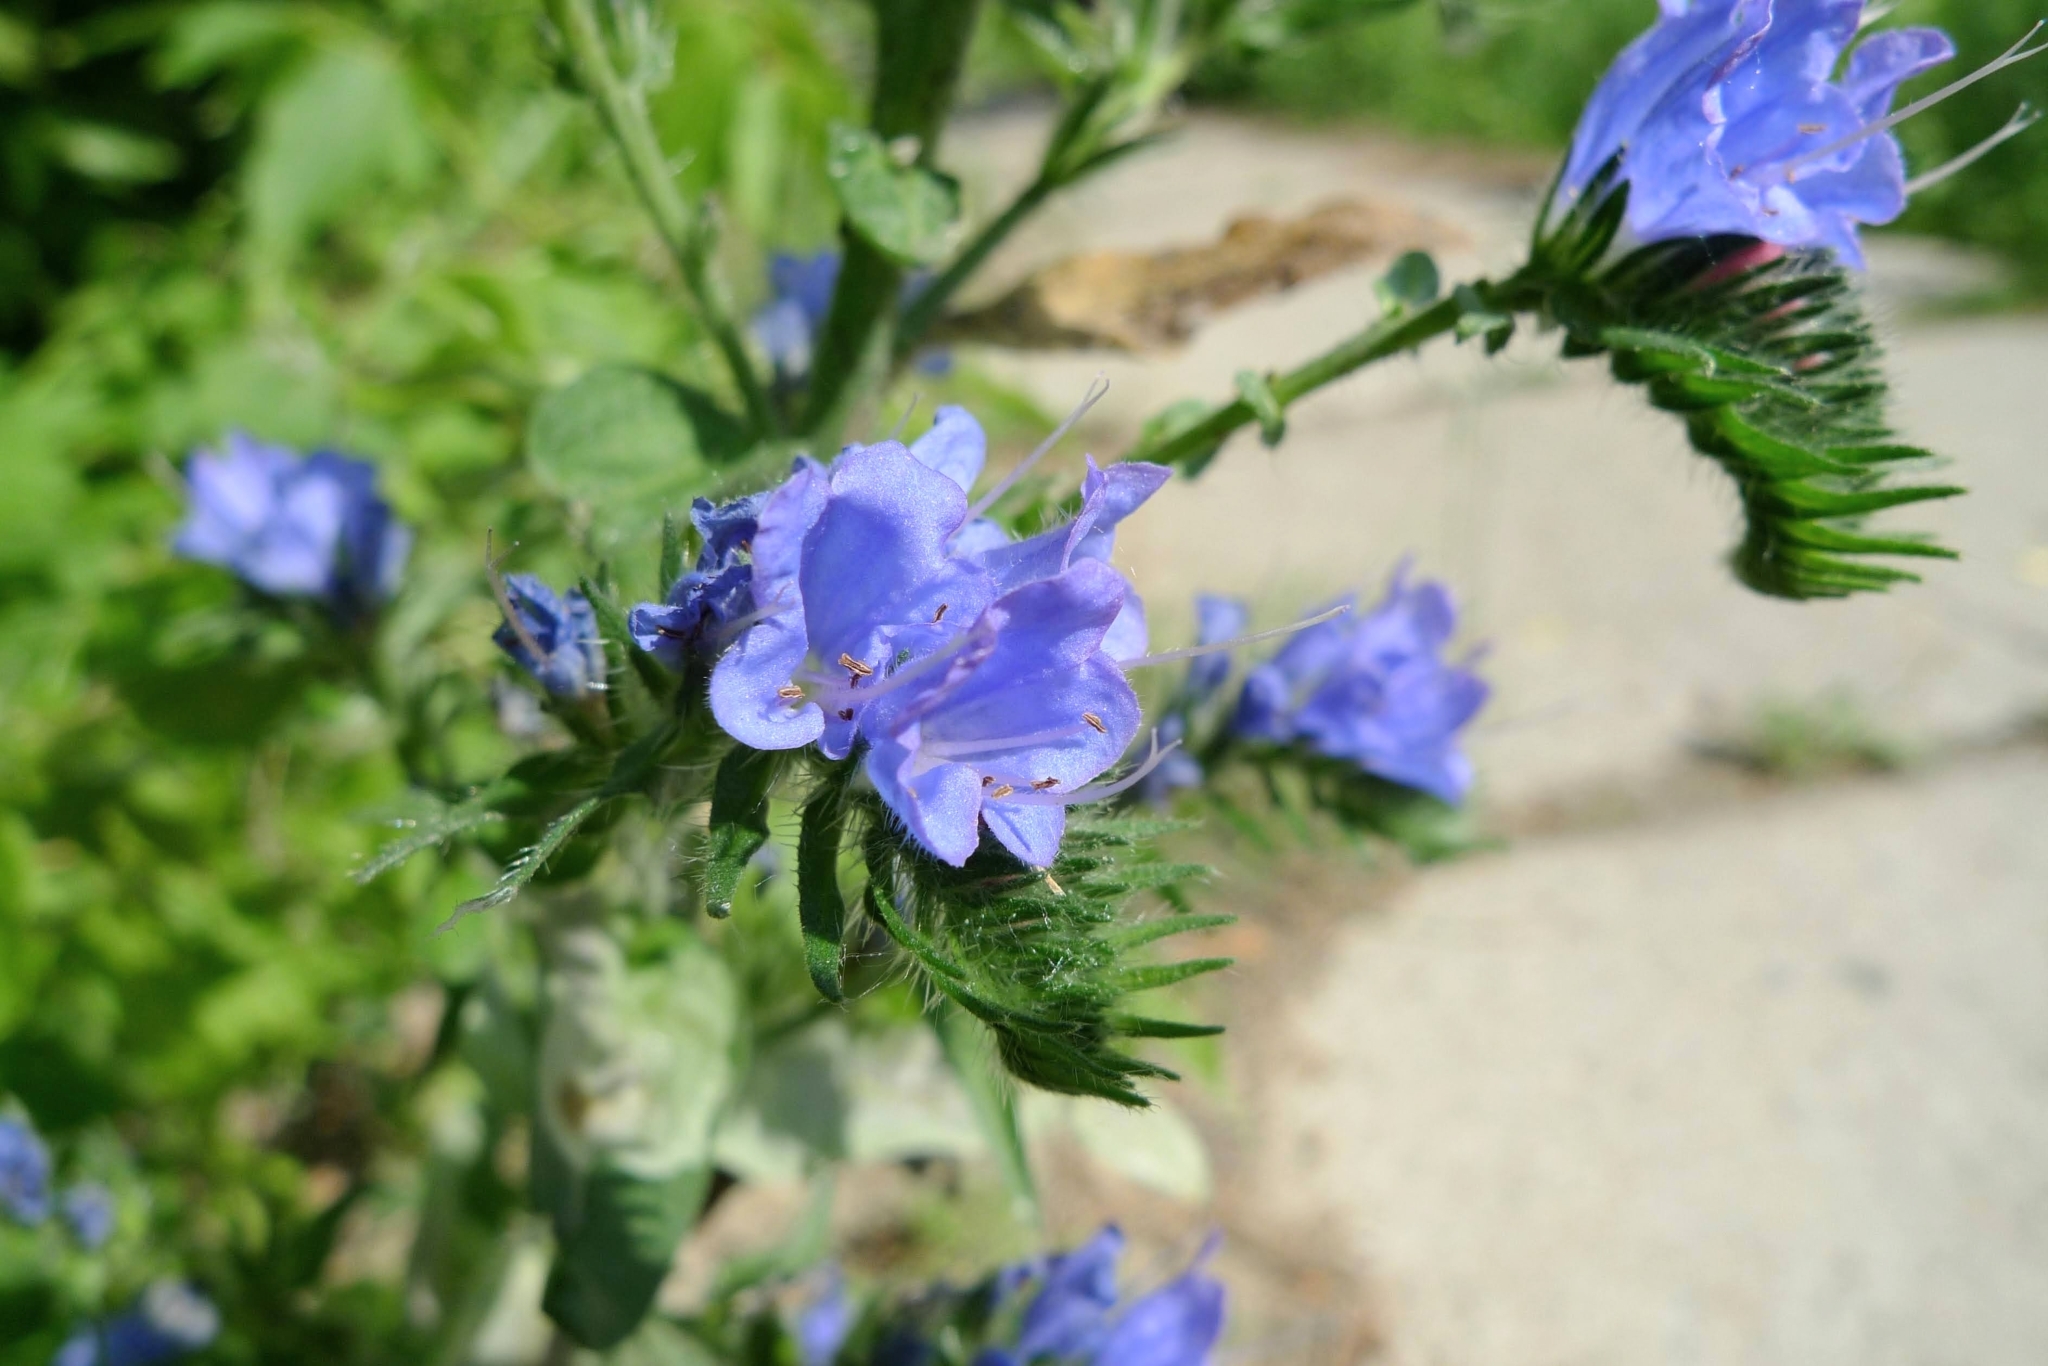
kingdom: Plantae
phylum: Tracheophyta
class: Magnoliopsida
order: Boraginales
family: Boraginaceae
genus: Echium
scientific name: Echium vulgare
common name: Common viper's bugloss
